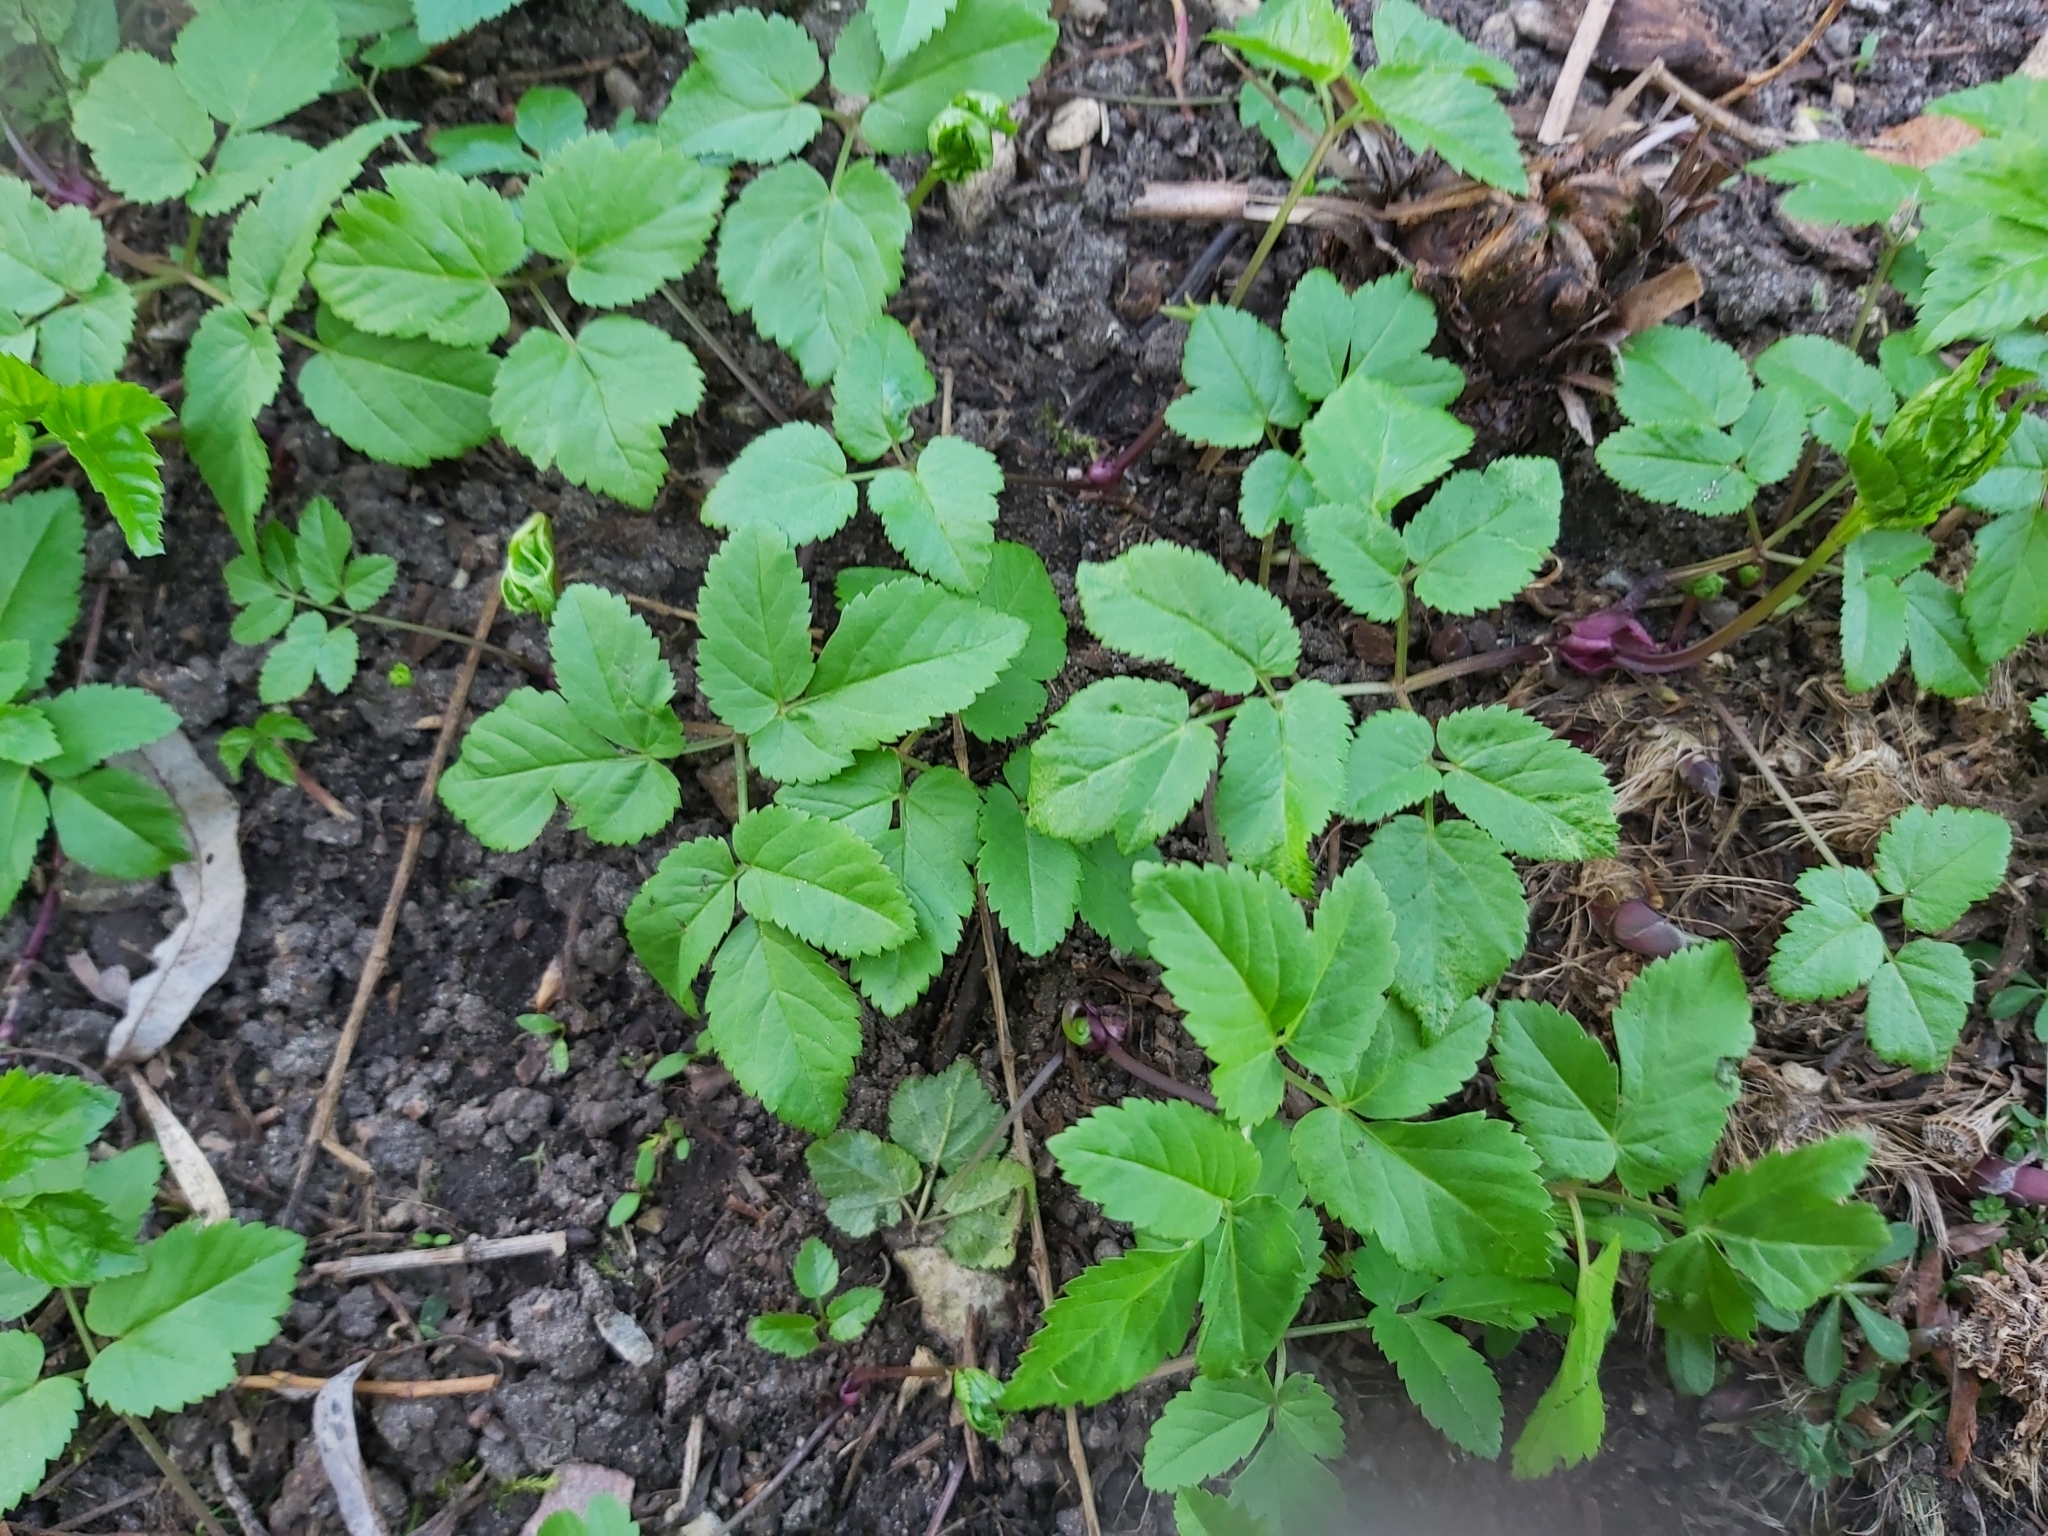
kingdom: Plantae
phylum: Tracheophyta
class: Magnoliopsida
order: Apiales
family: Apiaceae
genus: Aegopodium
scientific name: Aegopodium podagraria
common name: Ground-elder
